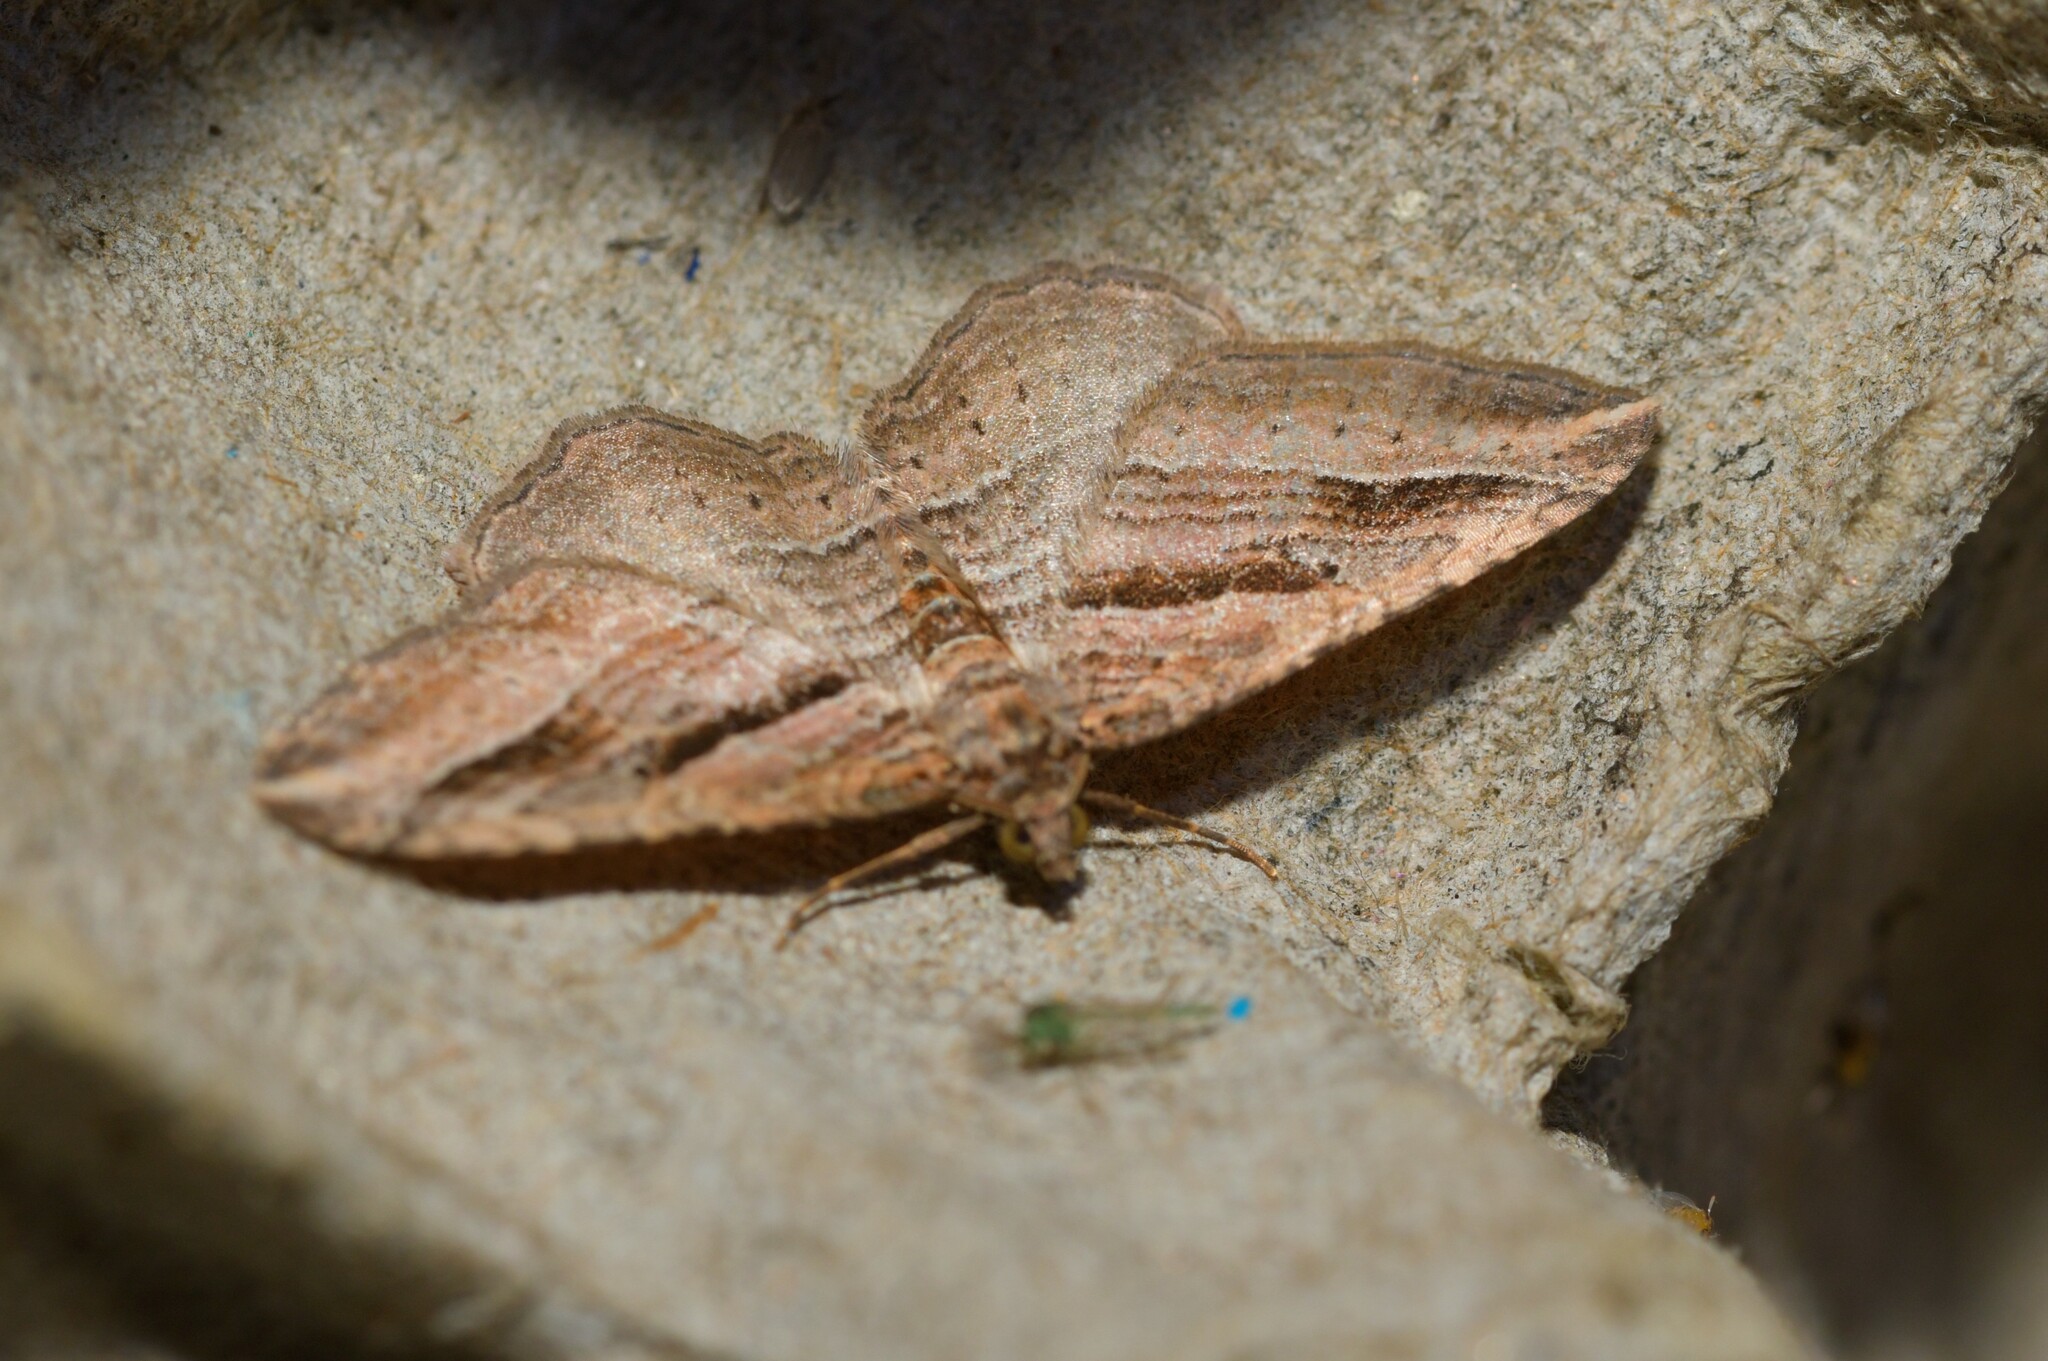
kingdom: Animalia
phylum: Arthropoda
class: Insecta
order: Lepidoptera
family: Geometridae
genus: Costaconvexa
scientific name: Costaconvexa polygrammata
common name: Many-lined
